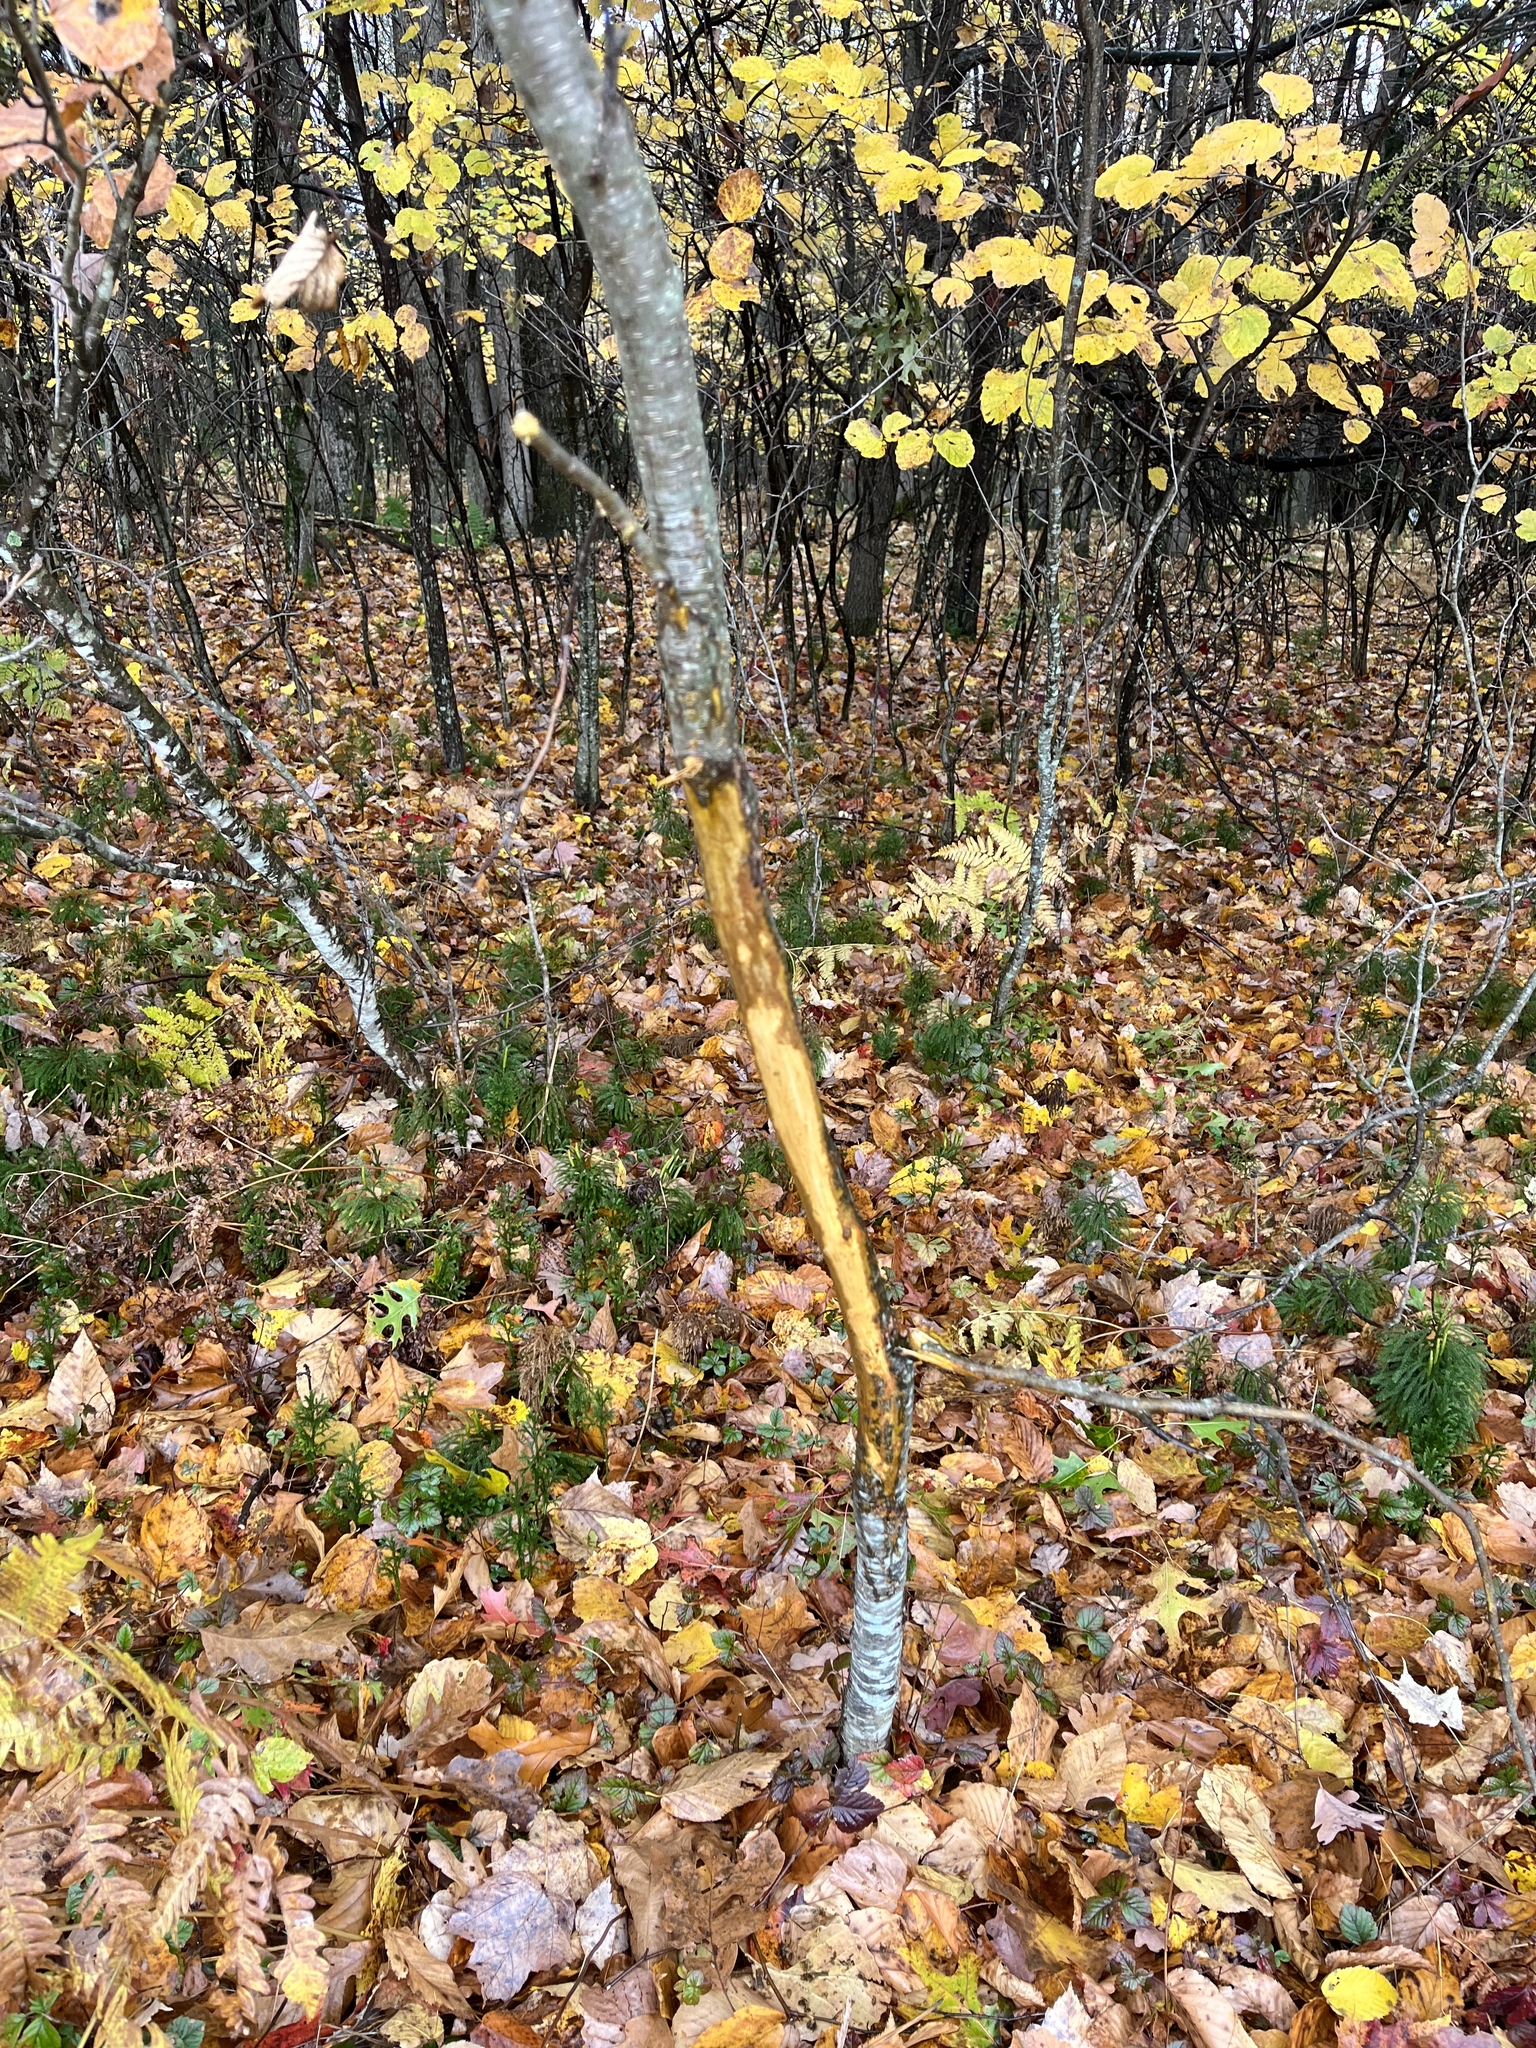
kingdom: Animalia
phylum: Chordata
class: Mammalia
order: Artiodactyla
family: Cervidae
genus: Odocoileus
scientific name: Odocoileus virginianus
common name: White-tailed deer
